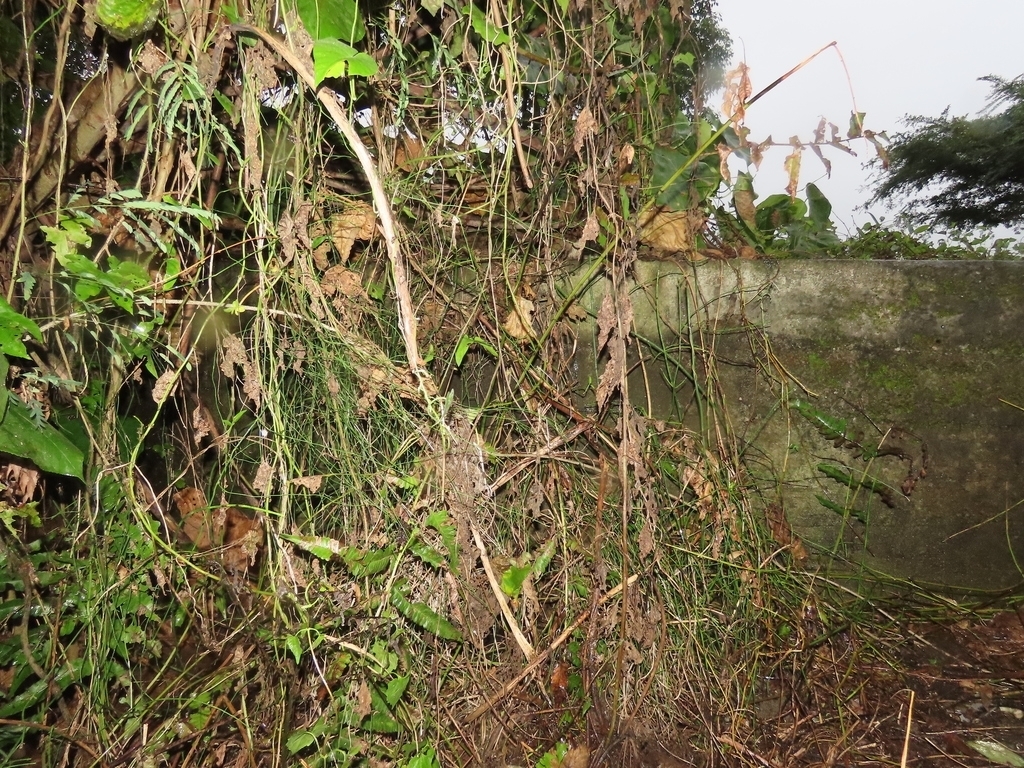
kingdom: Animalia
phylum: Arthropoda
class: Insecta
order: Odonata
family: Platycnemididae
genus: Copera
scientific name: Copera marginipes
